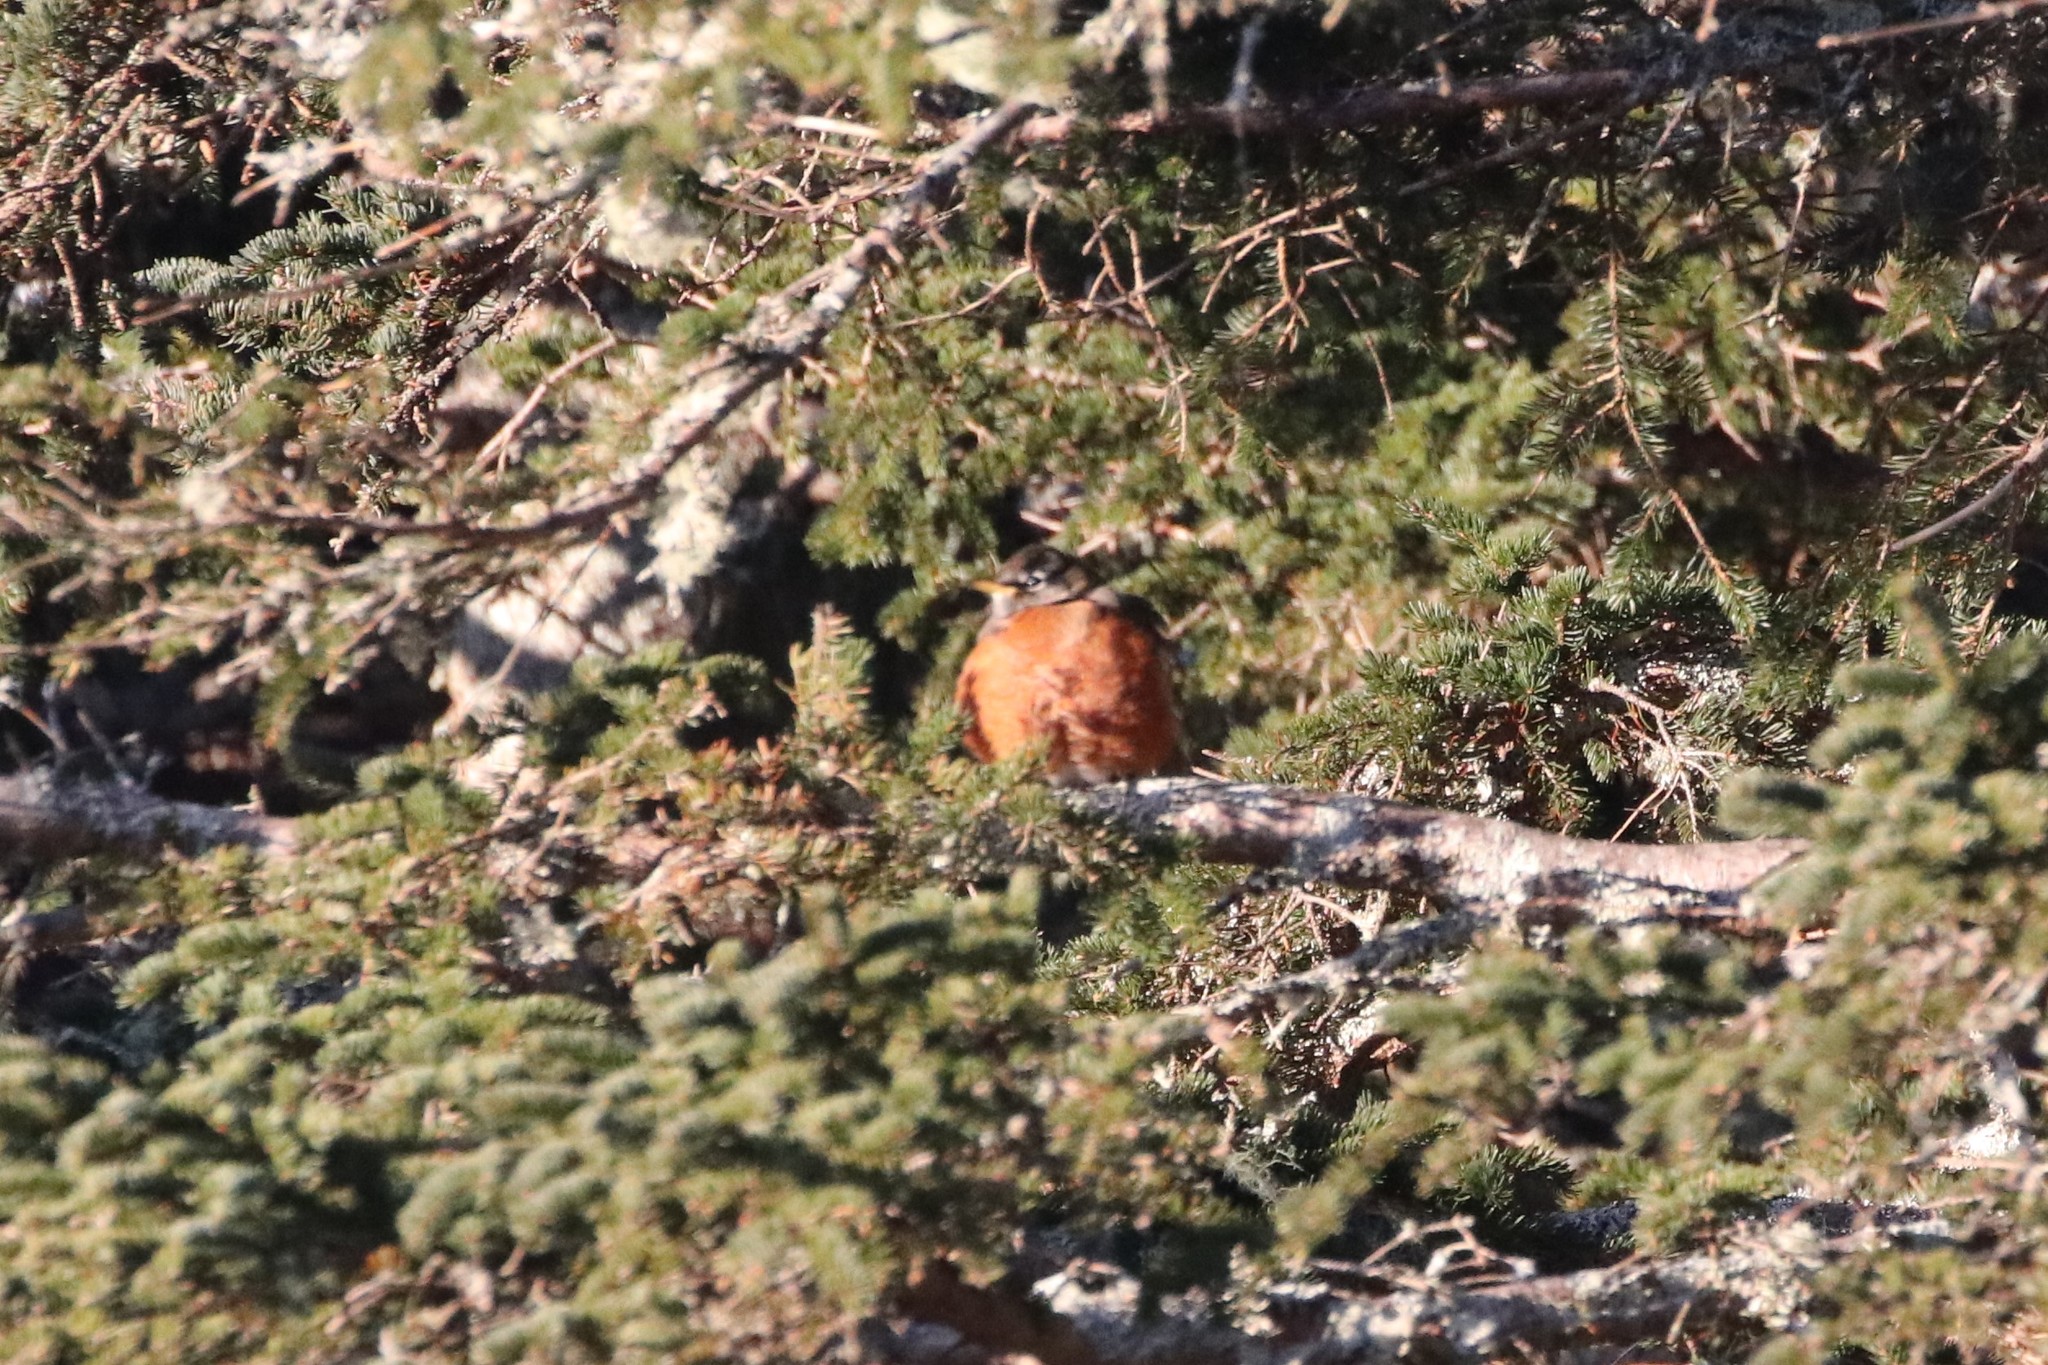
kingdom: Animalia
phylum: Chordata
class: Aves
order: Passeriformes
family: Turdidae
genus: Turdus
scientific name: Turdus migratorius
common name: American robin
